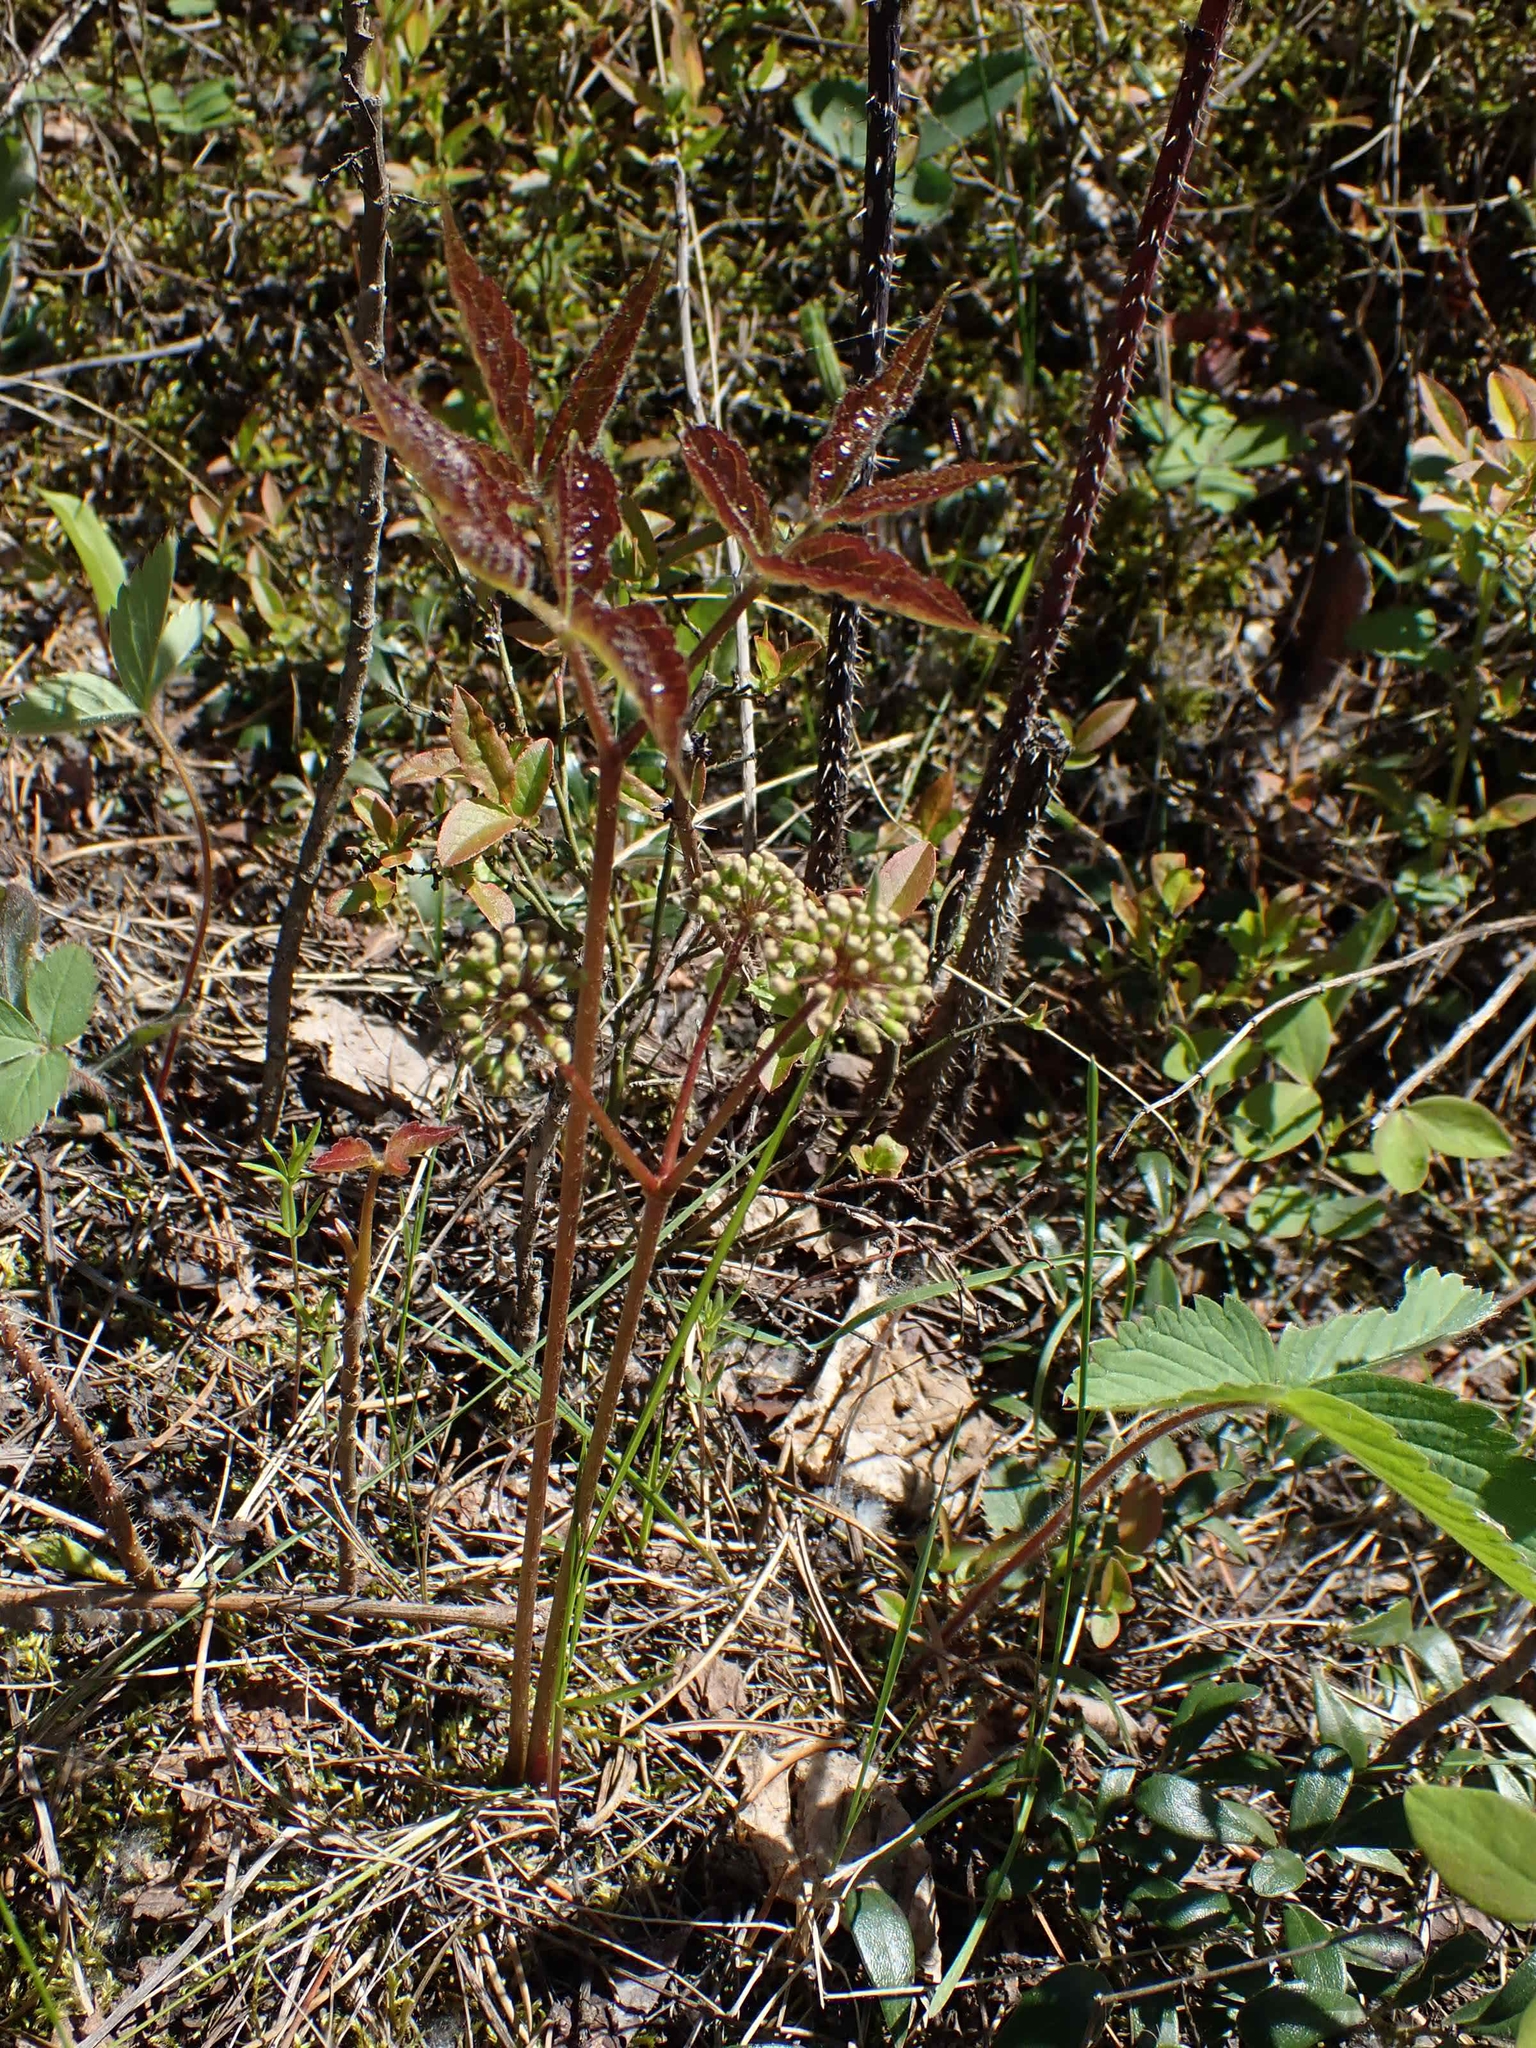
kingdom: Plantae
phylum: Tracheophyta
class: Magnoliopsida
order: Apiales
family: Araliaceae
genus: Aralia
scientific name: Aralia nudicaulis
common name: Wild sarsaparilla
